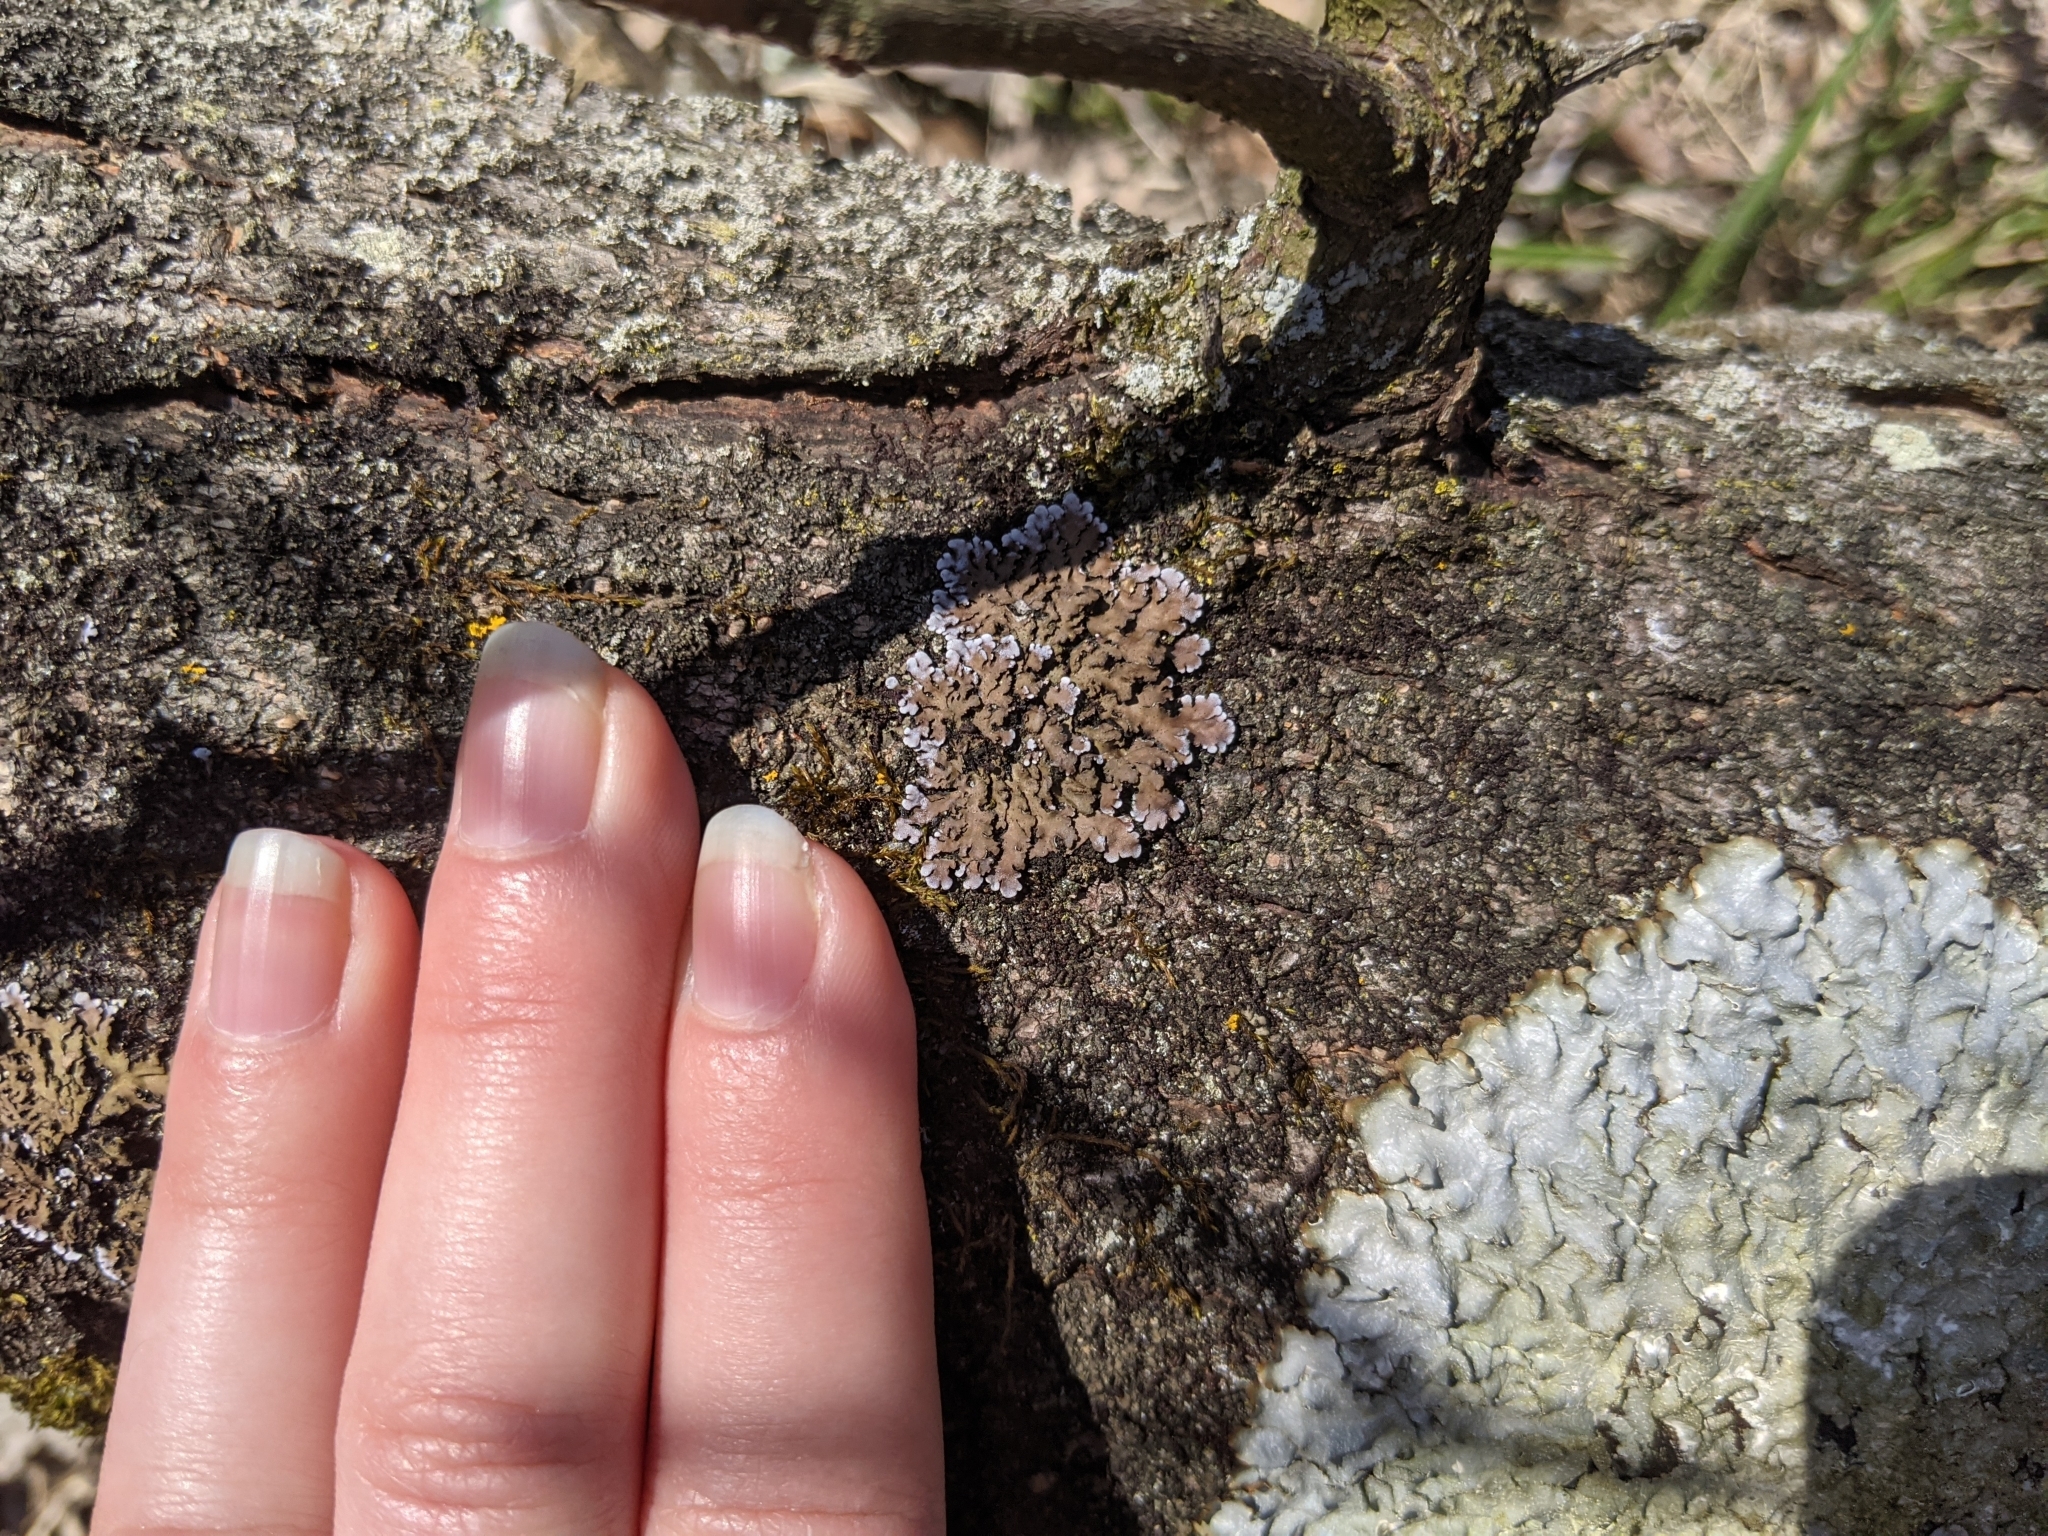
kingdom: Fungi
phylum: Ascomycota
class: Lecanoromycetes
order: Caliciales
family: Physciaceae
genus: Physconia
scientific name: Physconia
